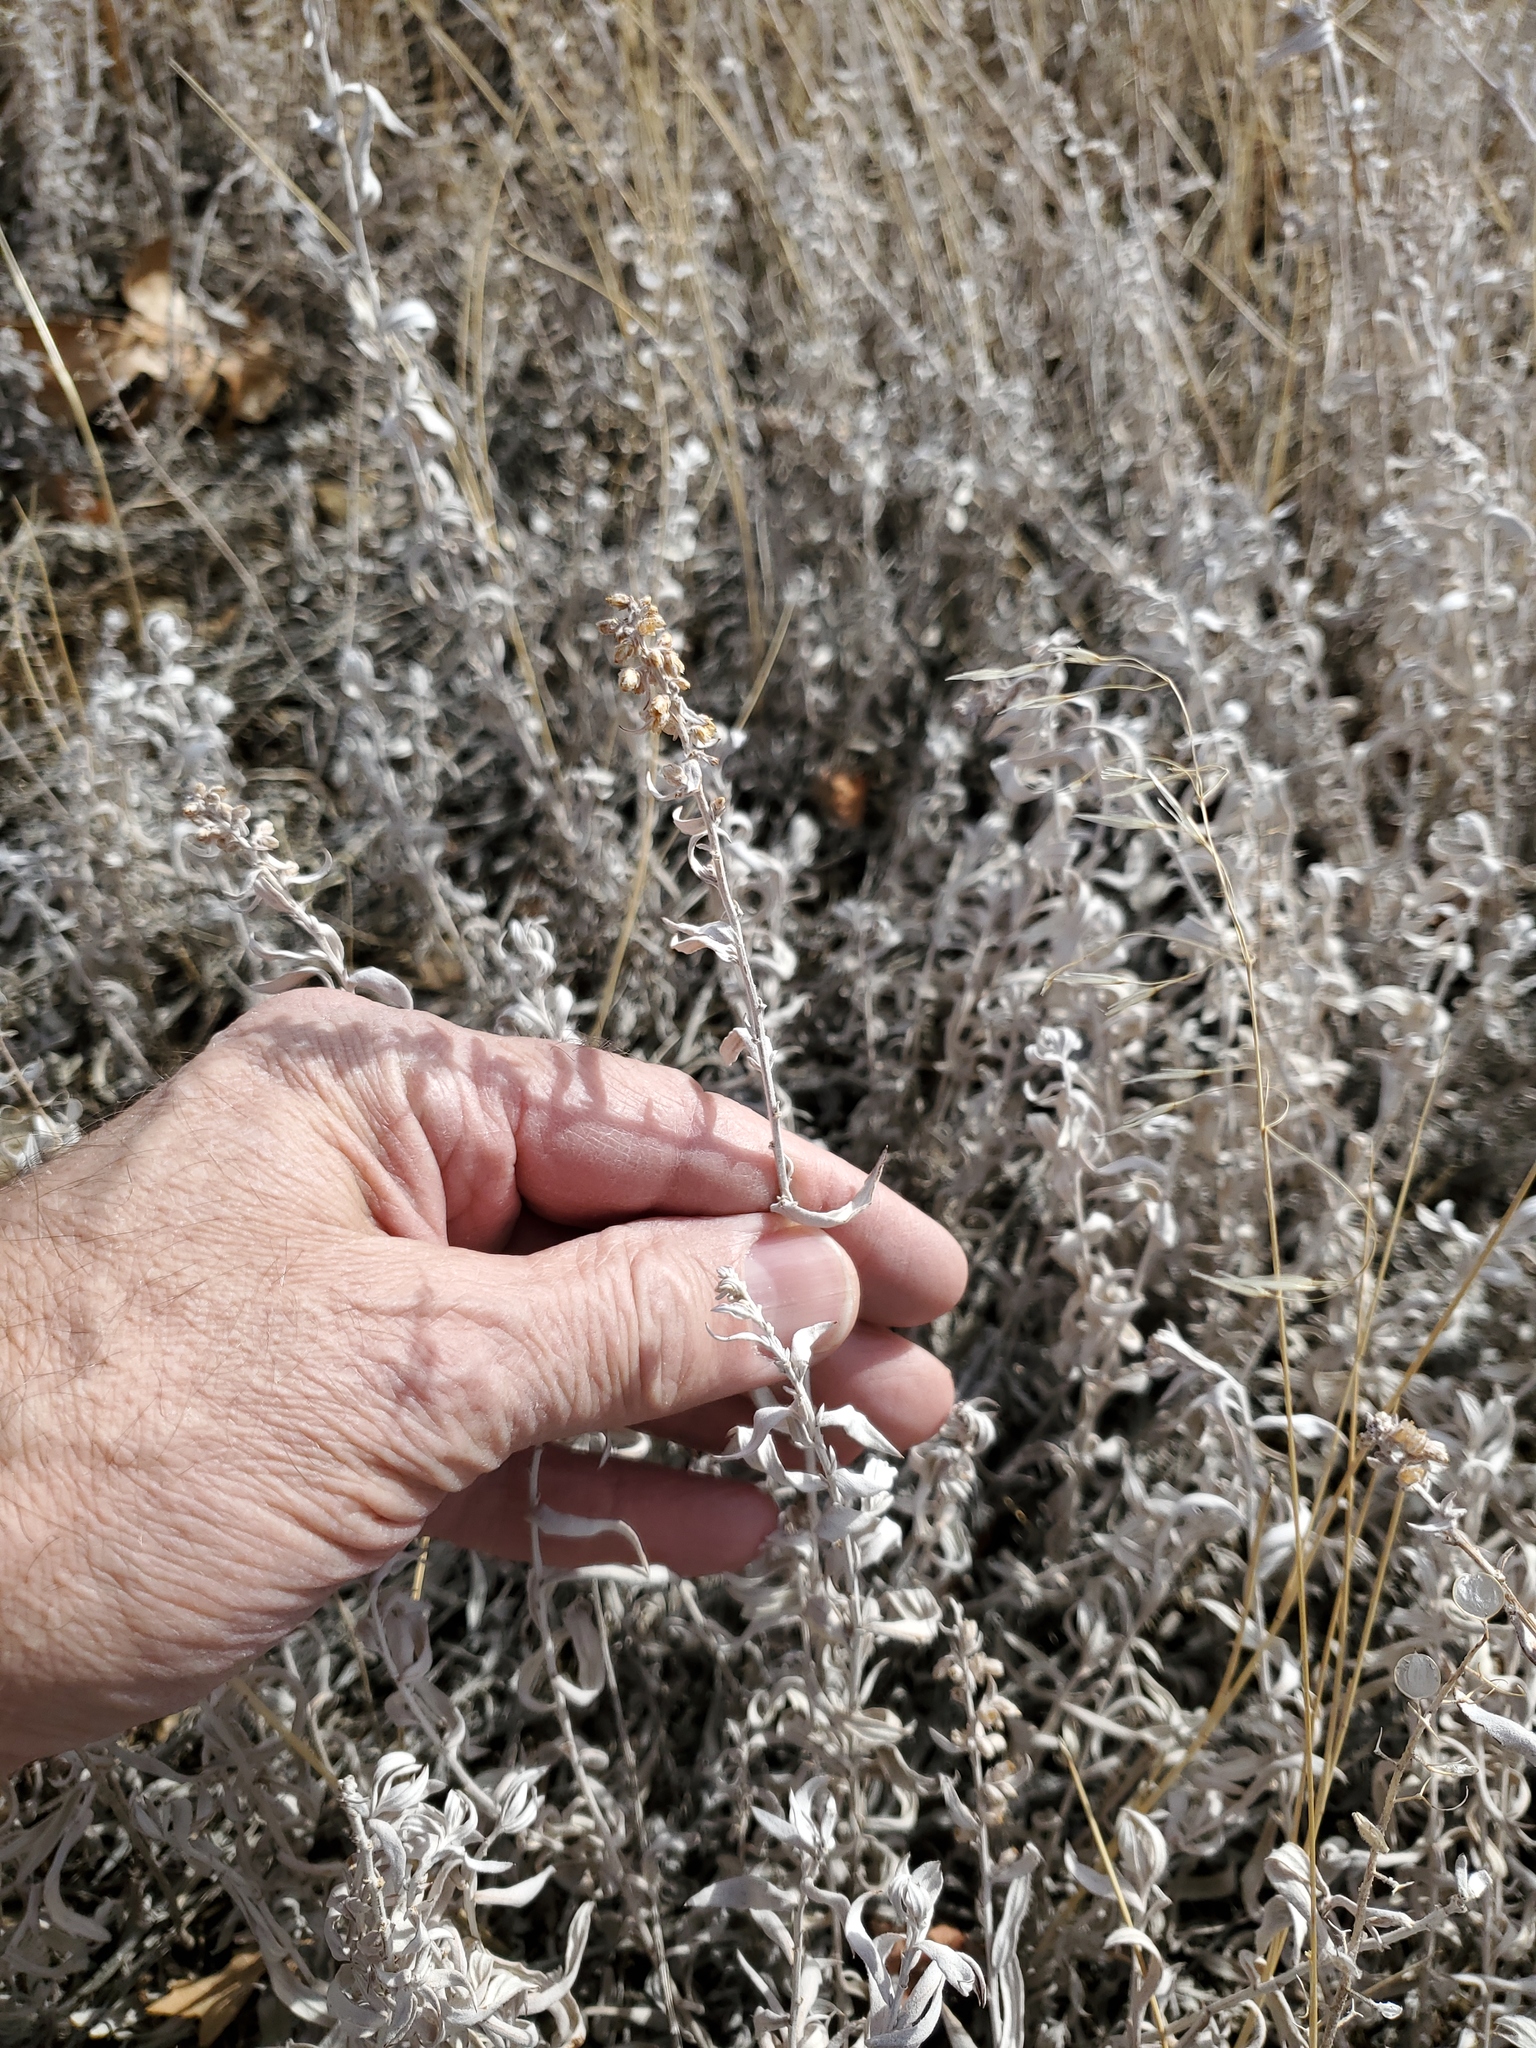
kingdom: Plantae
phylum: Tracheophyta
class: Magnoliopsida
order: Asterales
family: Asteraceae
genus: Artemisia
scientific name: Artemisia cana
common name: Silver sagebrush
